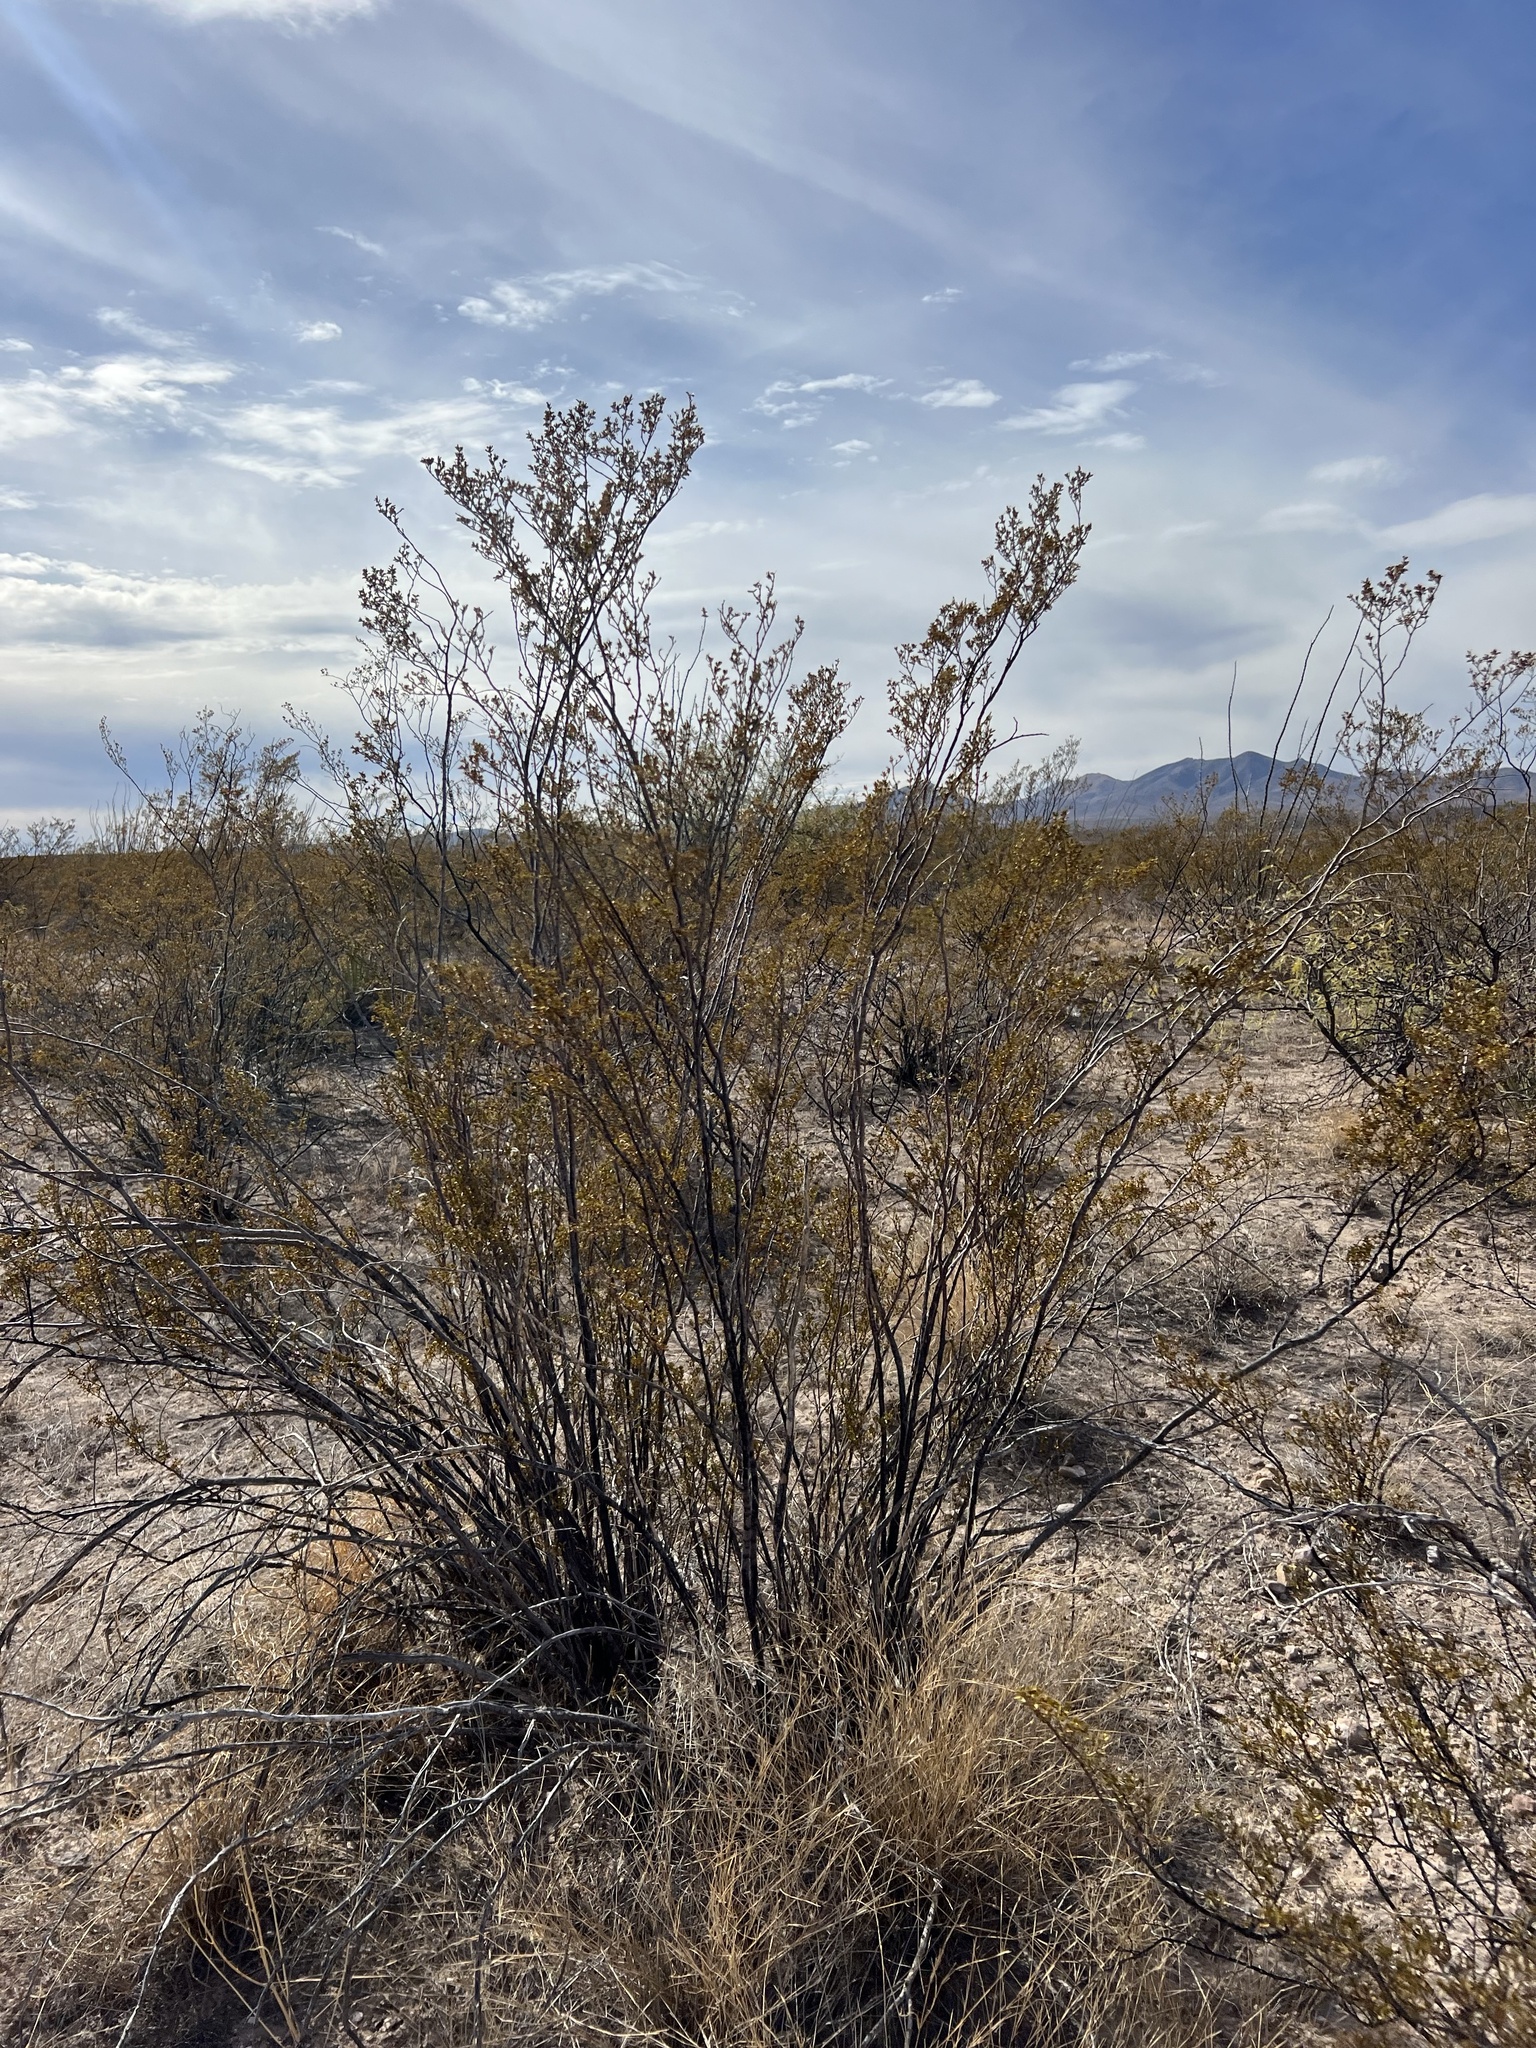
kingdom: Plantae
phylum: Tracheophyta
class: Magnoliopsida
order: Zygophyllales
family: Zygophyllaceae
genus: Larrea
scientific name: Larrea tridentata
